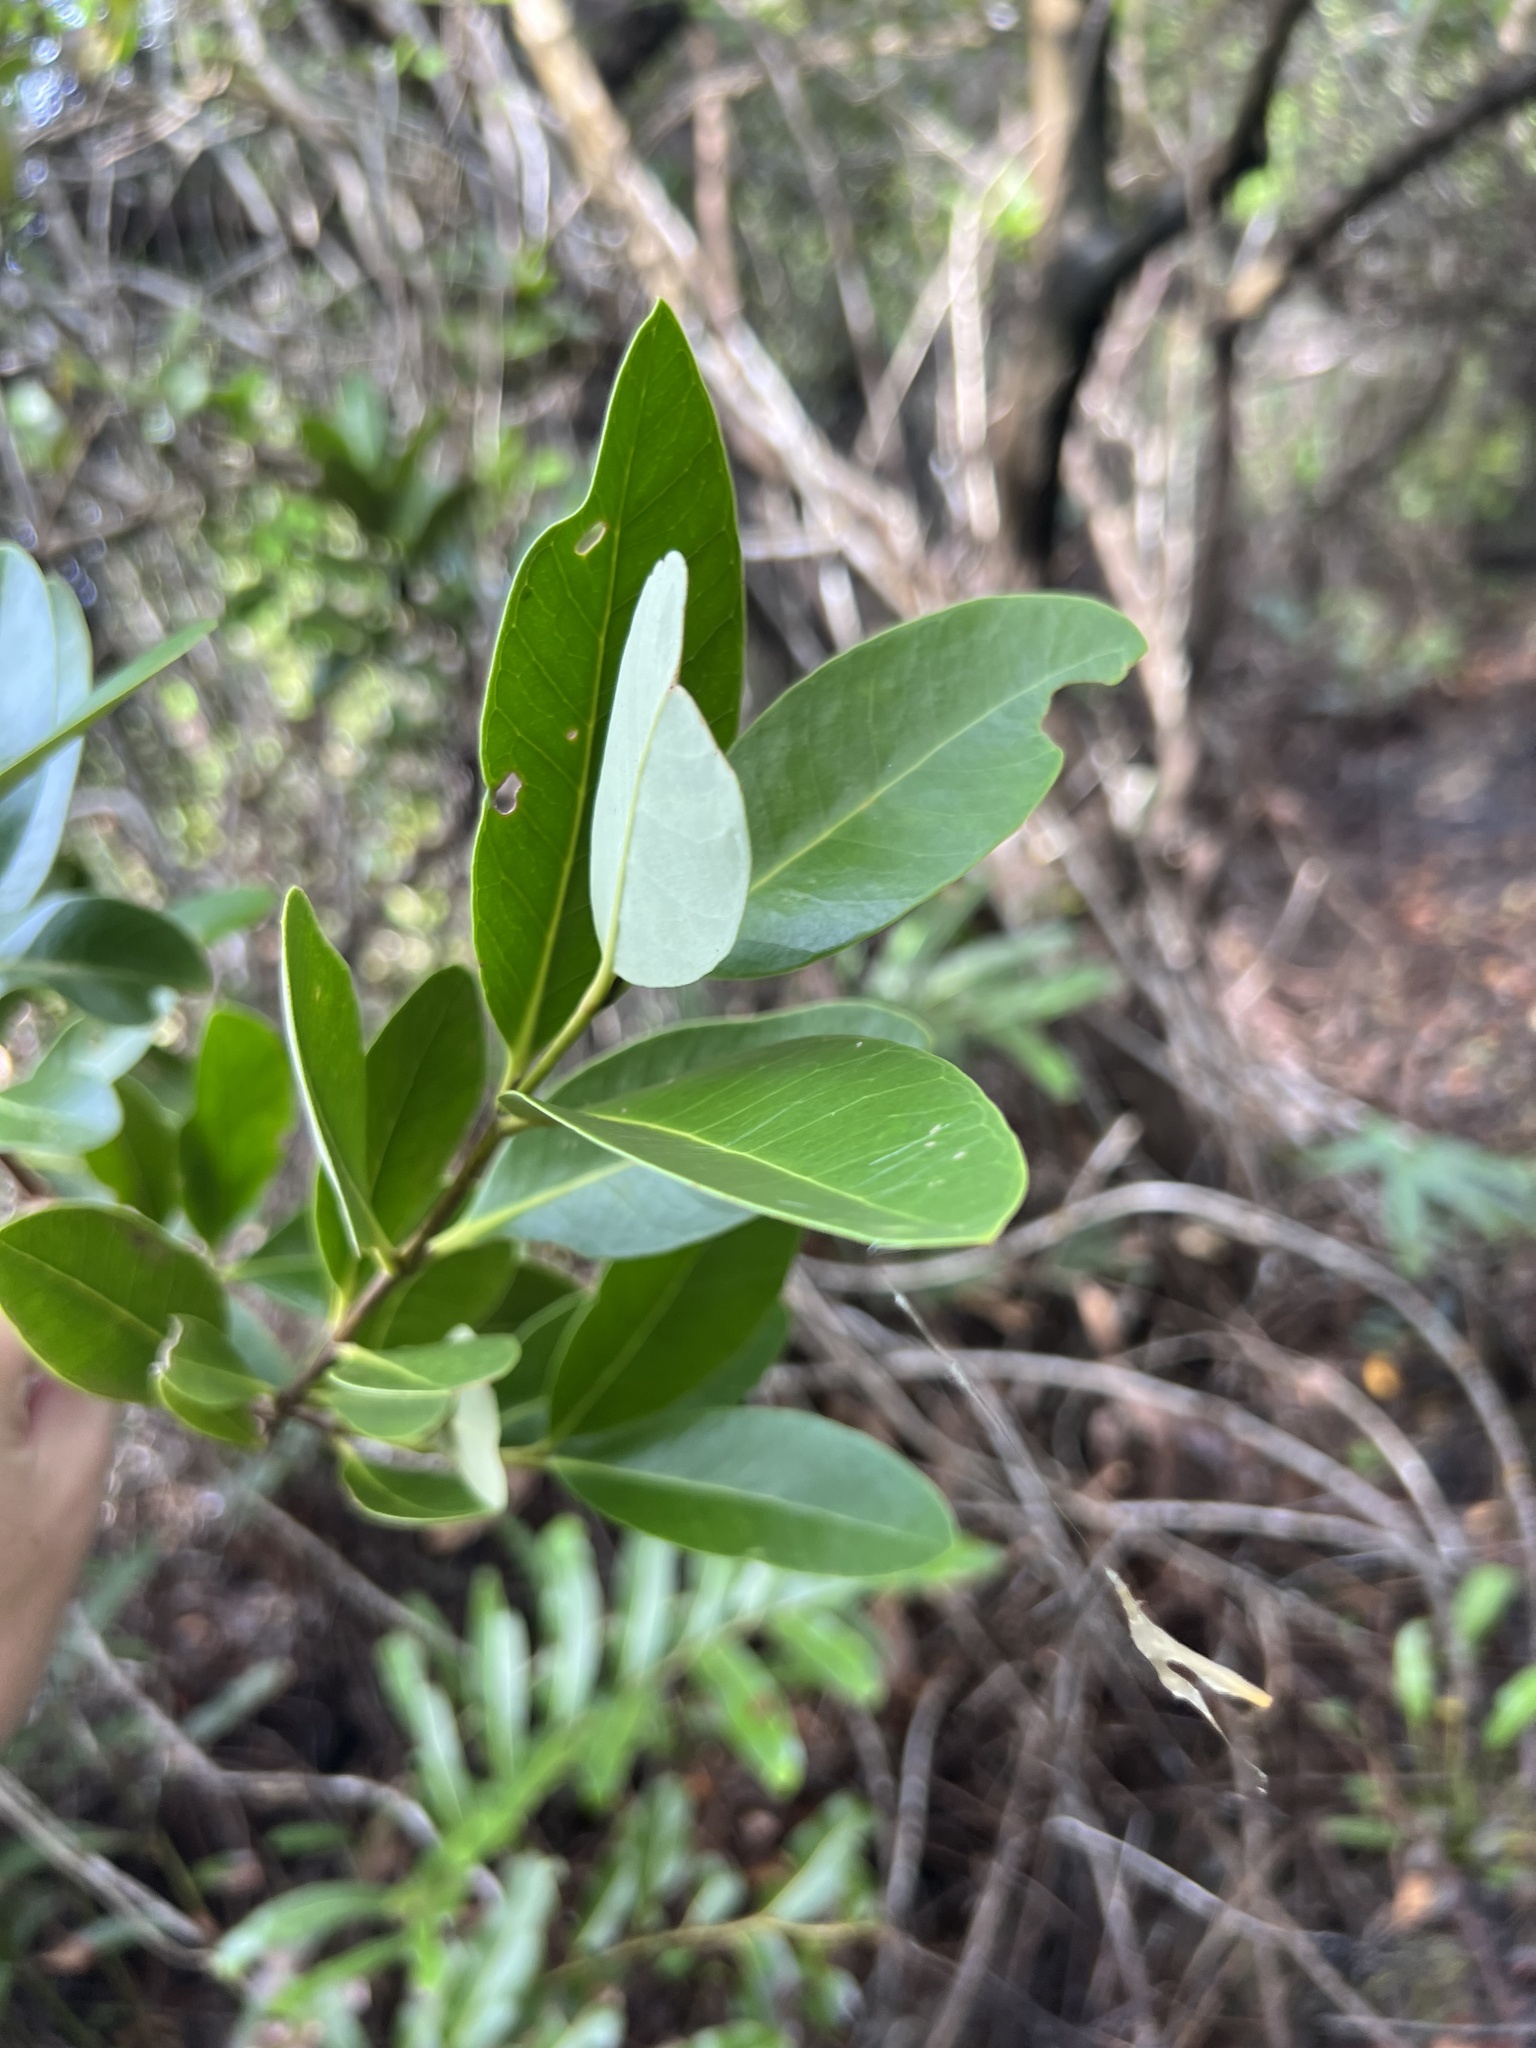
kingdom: Plantae
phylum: Tracheophyta
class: Magnoliopsida
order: Lamiales
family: Acanthaceae
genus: Avicennia
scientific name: Avicennia germinans
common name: Black mangrove
